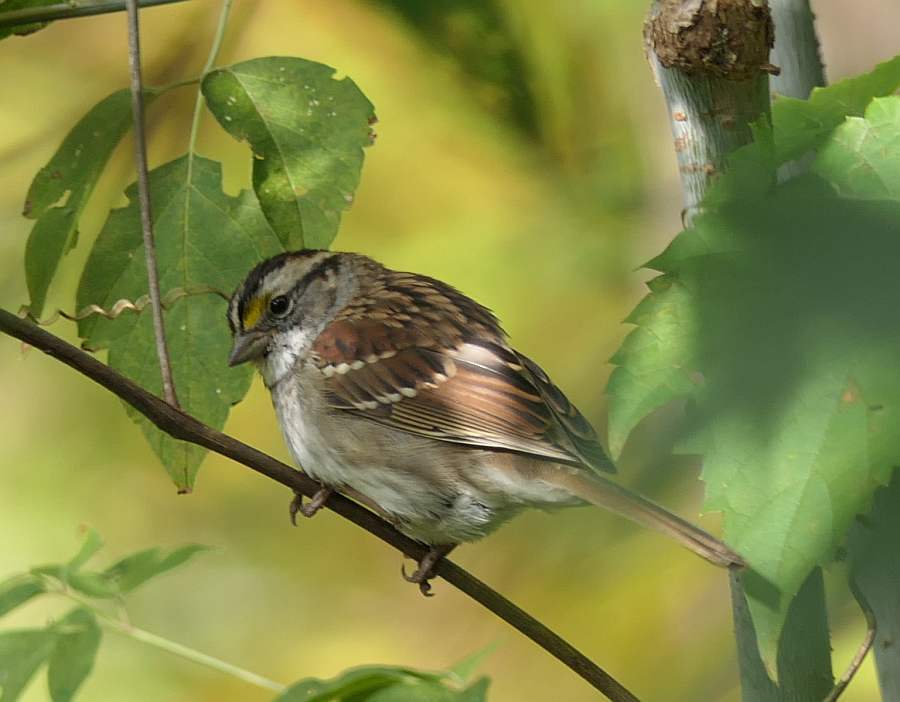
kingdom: Animalia
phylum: Chordata
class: Aves
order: Passeriformes
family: Passerellidae
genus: Zonotrichia
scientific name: Zonotrichia albicollis
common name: White-throated sparrow
